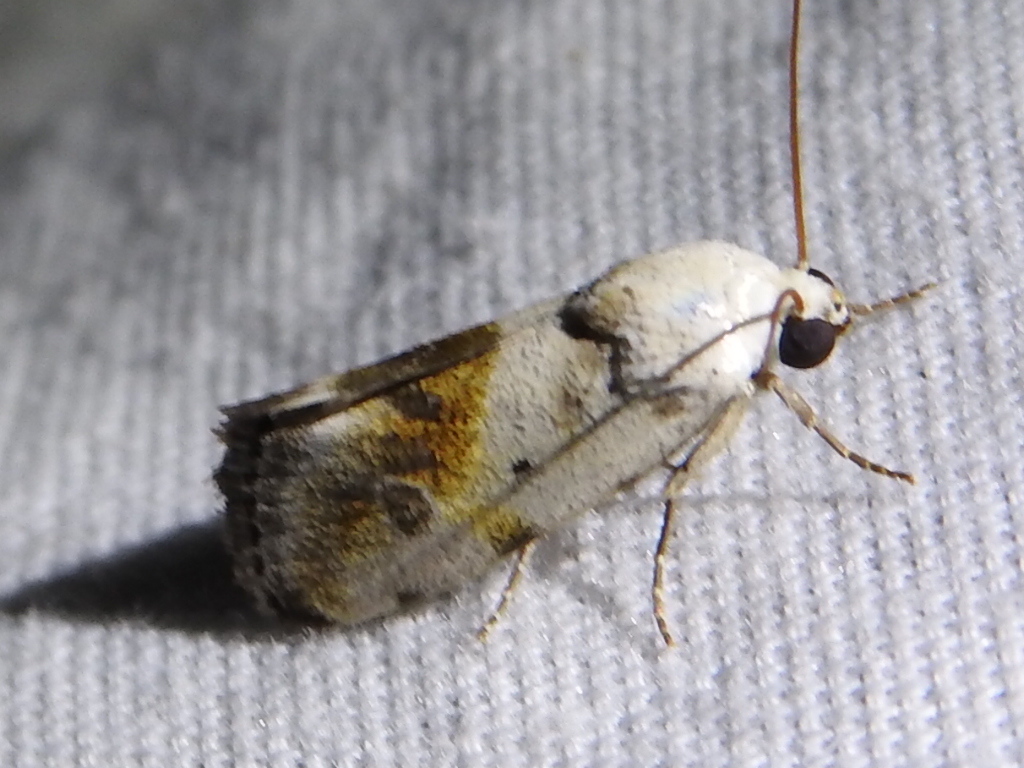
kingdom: Animalia
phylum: Arthropoda
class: Insecta
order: Lepidoptera
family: Noctuidae
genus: Acontia
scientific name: Acontia candefacta
